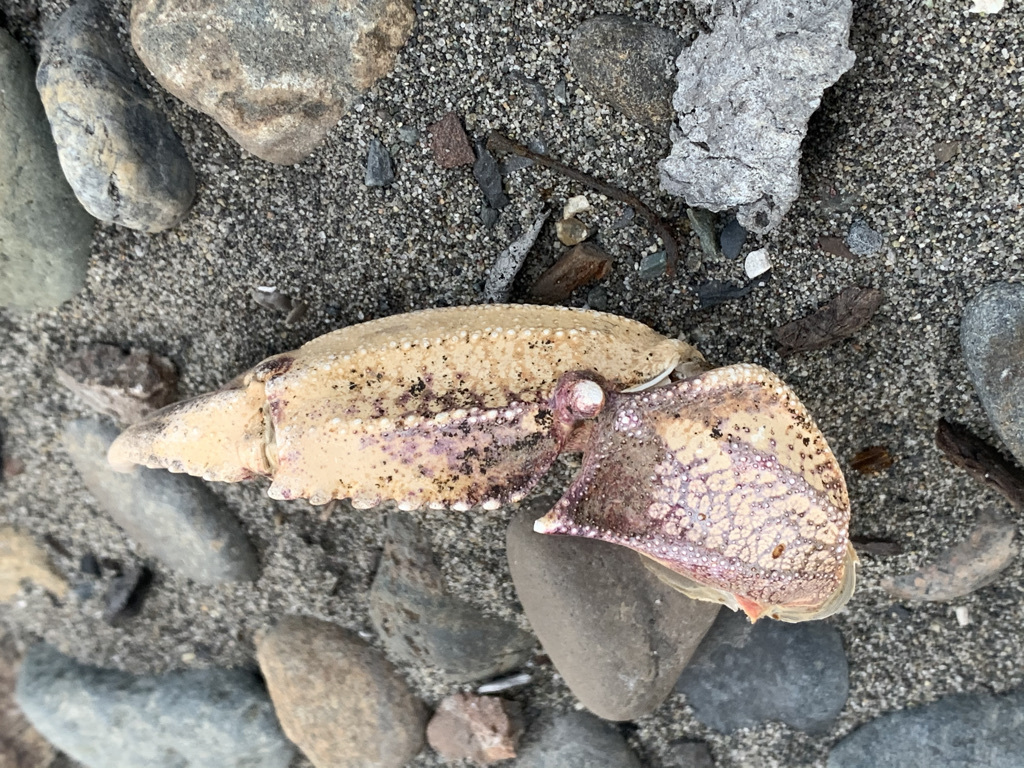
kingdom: Animalia
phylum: Arthropoda
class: Malacostraca
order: Decapoda
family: Cancridae
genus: Metacarcinus
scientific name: Metacarcinus magister
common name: Californian crab
